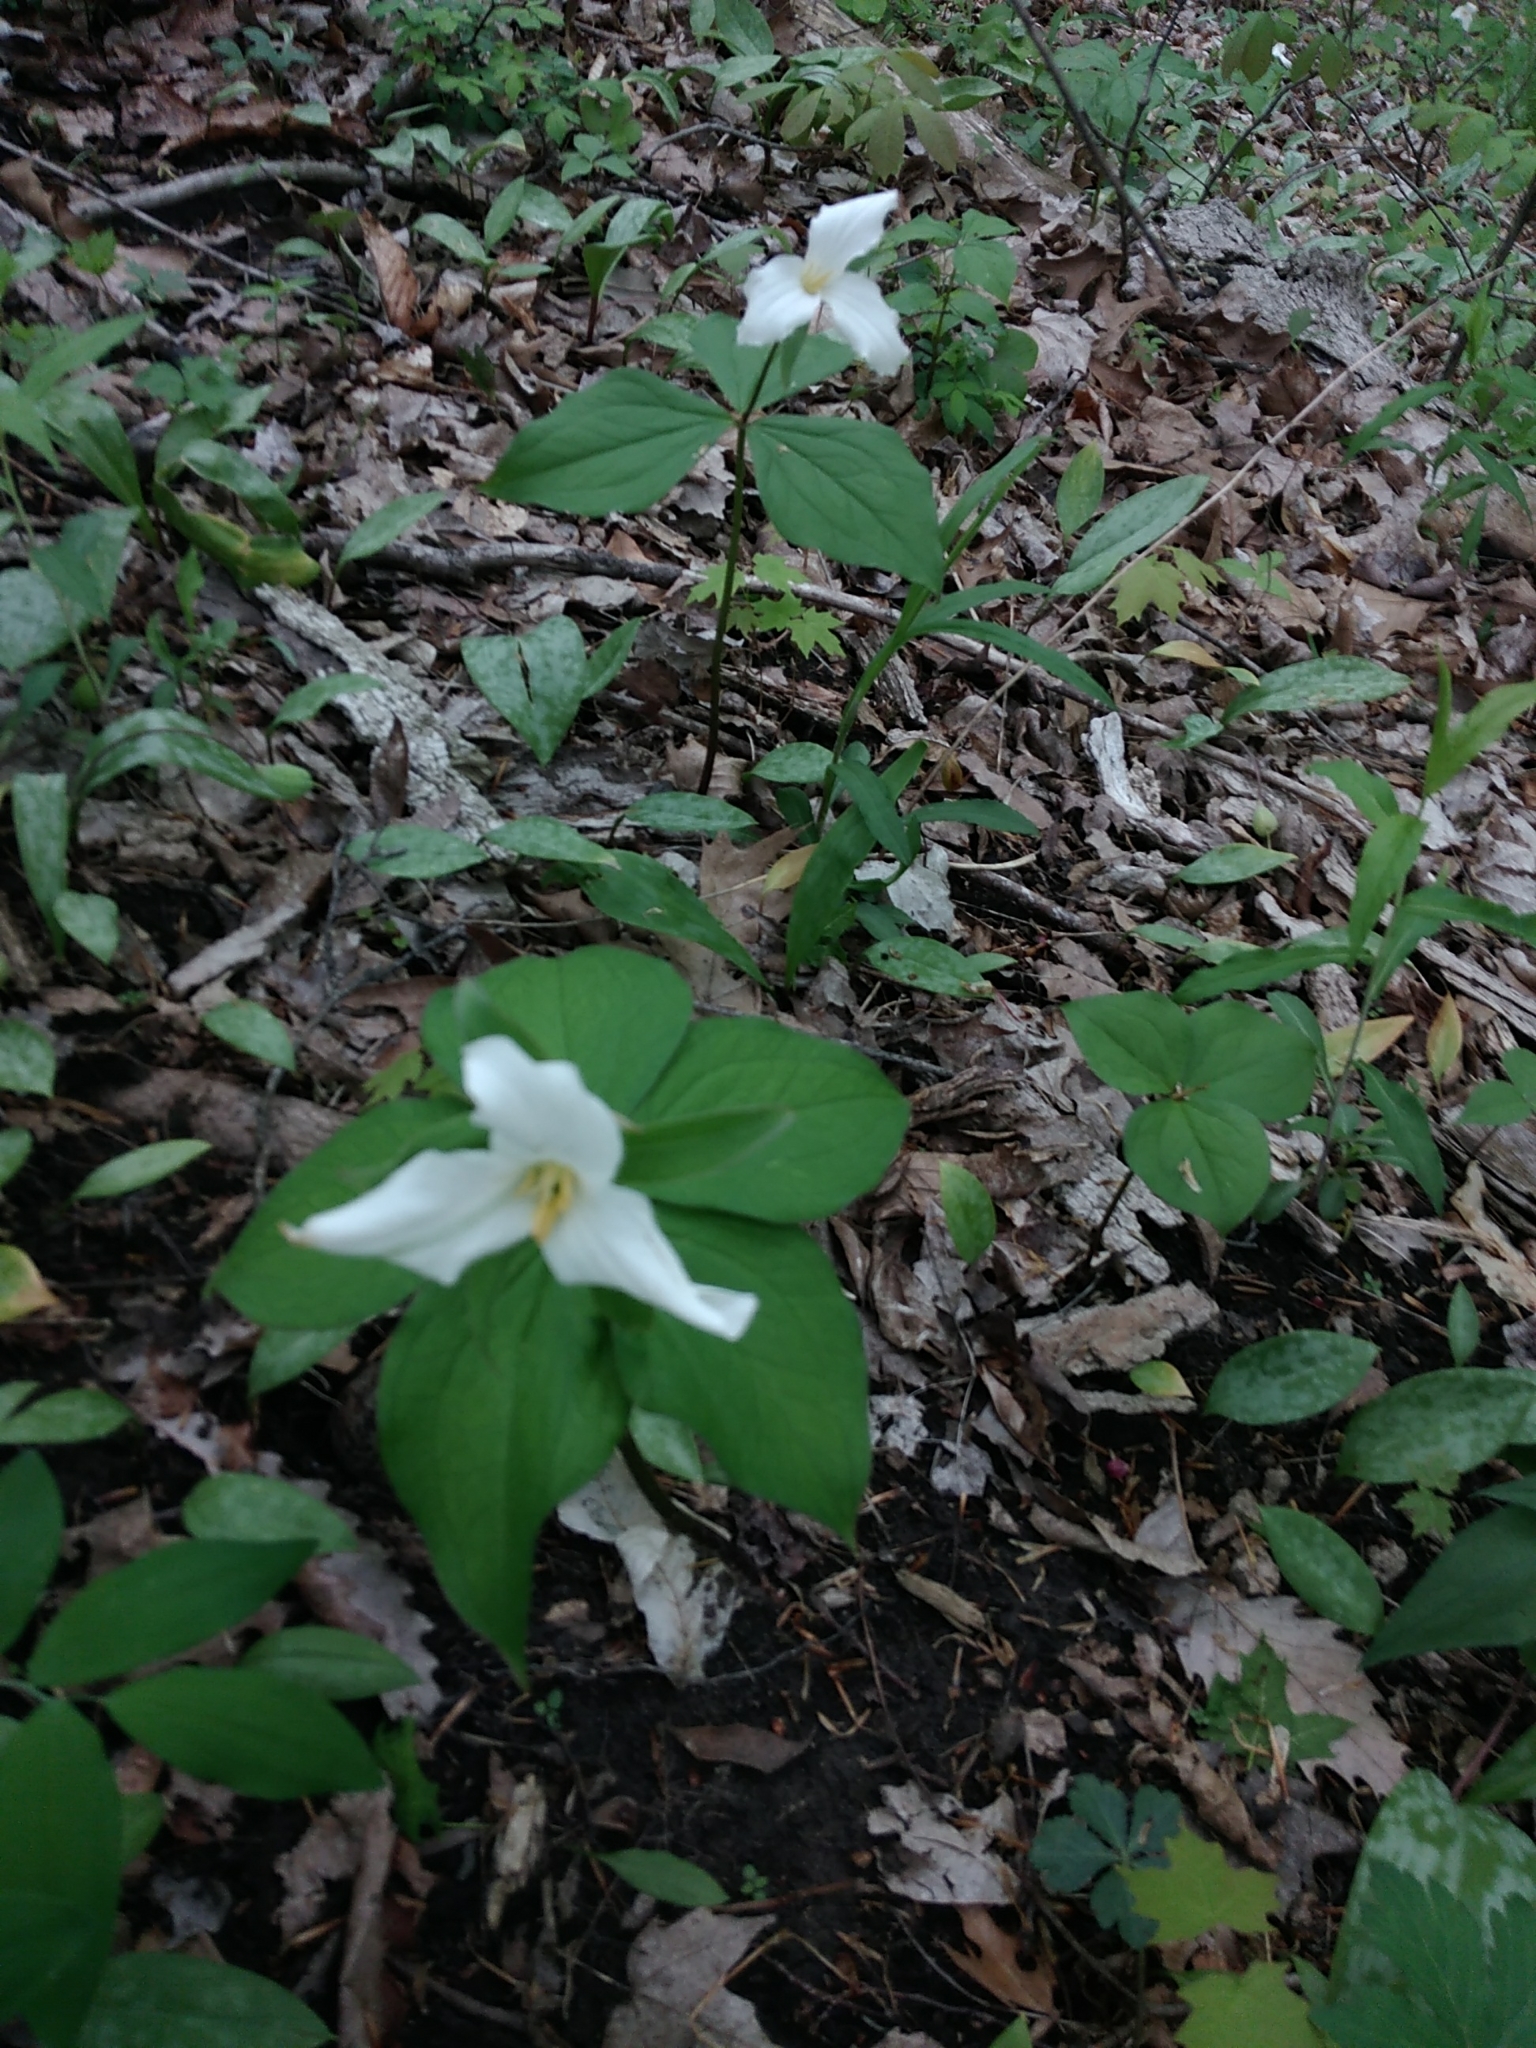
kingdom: Plantae
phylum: Tracheophyta
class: Liliopsida
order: Liliales
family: Melanthiaceae
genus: Trillium
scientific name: Trillium grandiflorum
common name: Great white trillium
